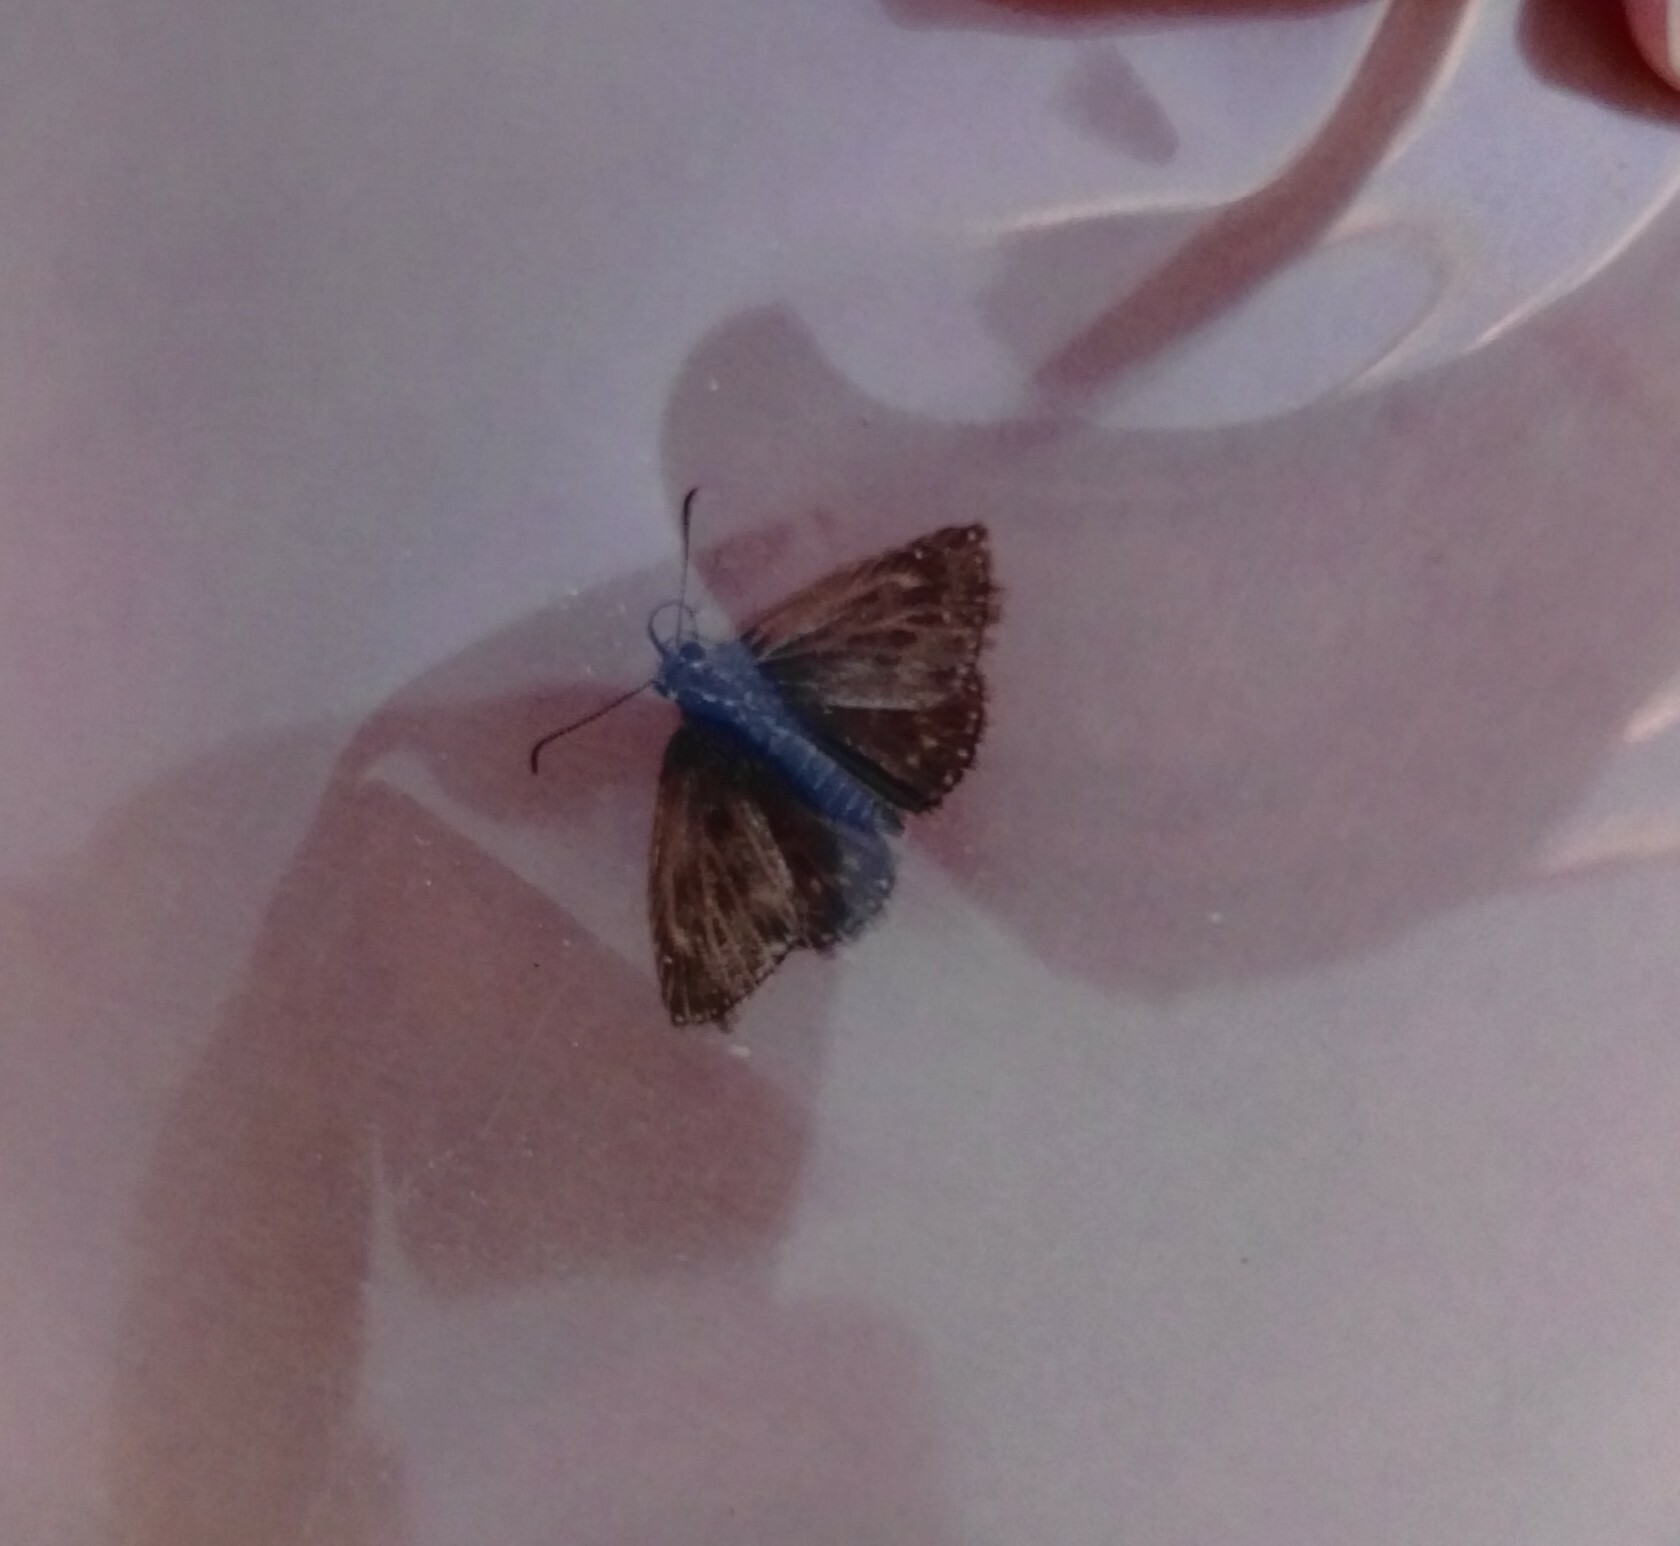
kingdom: Animalia
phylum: Arthropoda
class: Insecta
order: Lepidoptera
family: Hesperiidae
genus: Erynnis
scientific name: Erynnis tages
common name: Dingy skipper
